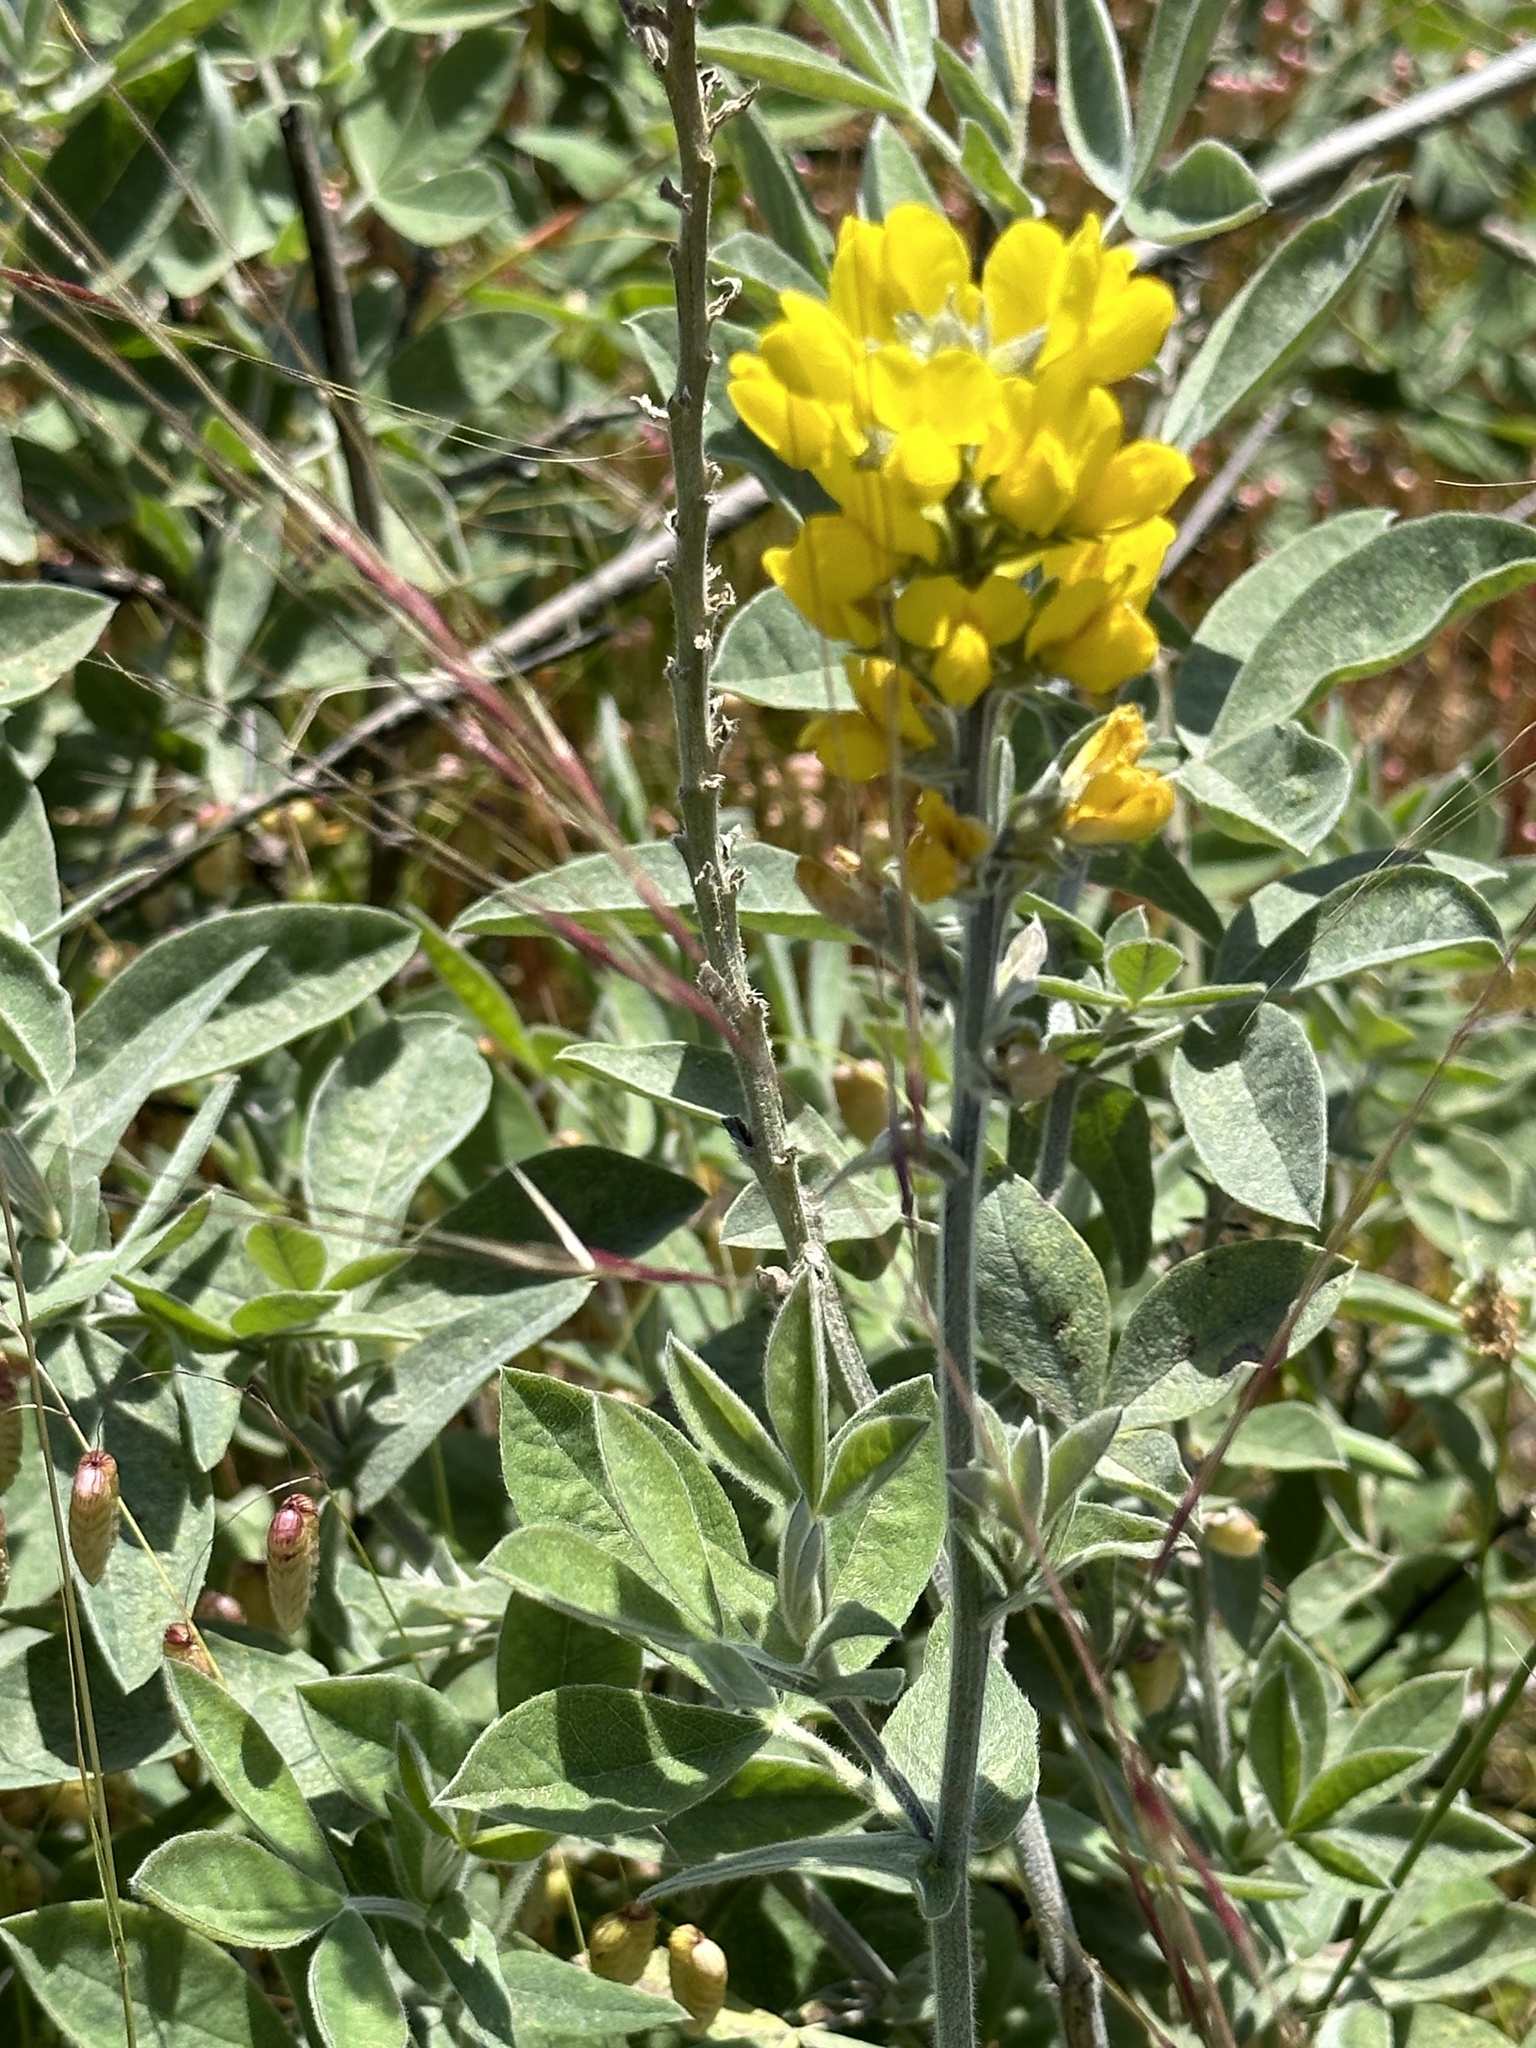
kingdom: Plantae
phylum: Tracheophyta
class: Magnoliopsida
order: Fabales
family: Fabaceae
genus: Thermopsis
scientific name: Thermopsis californica
